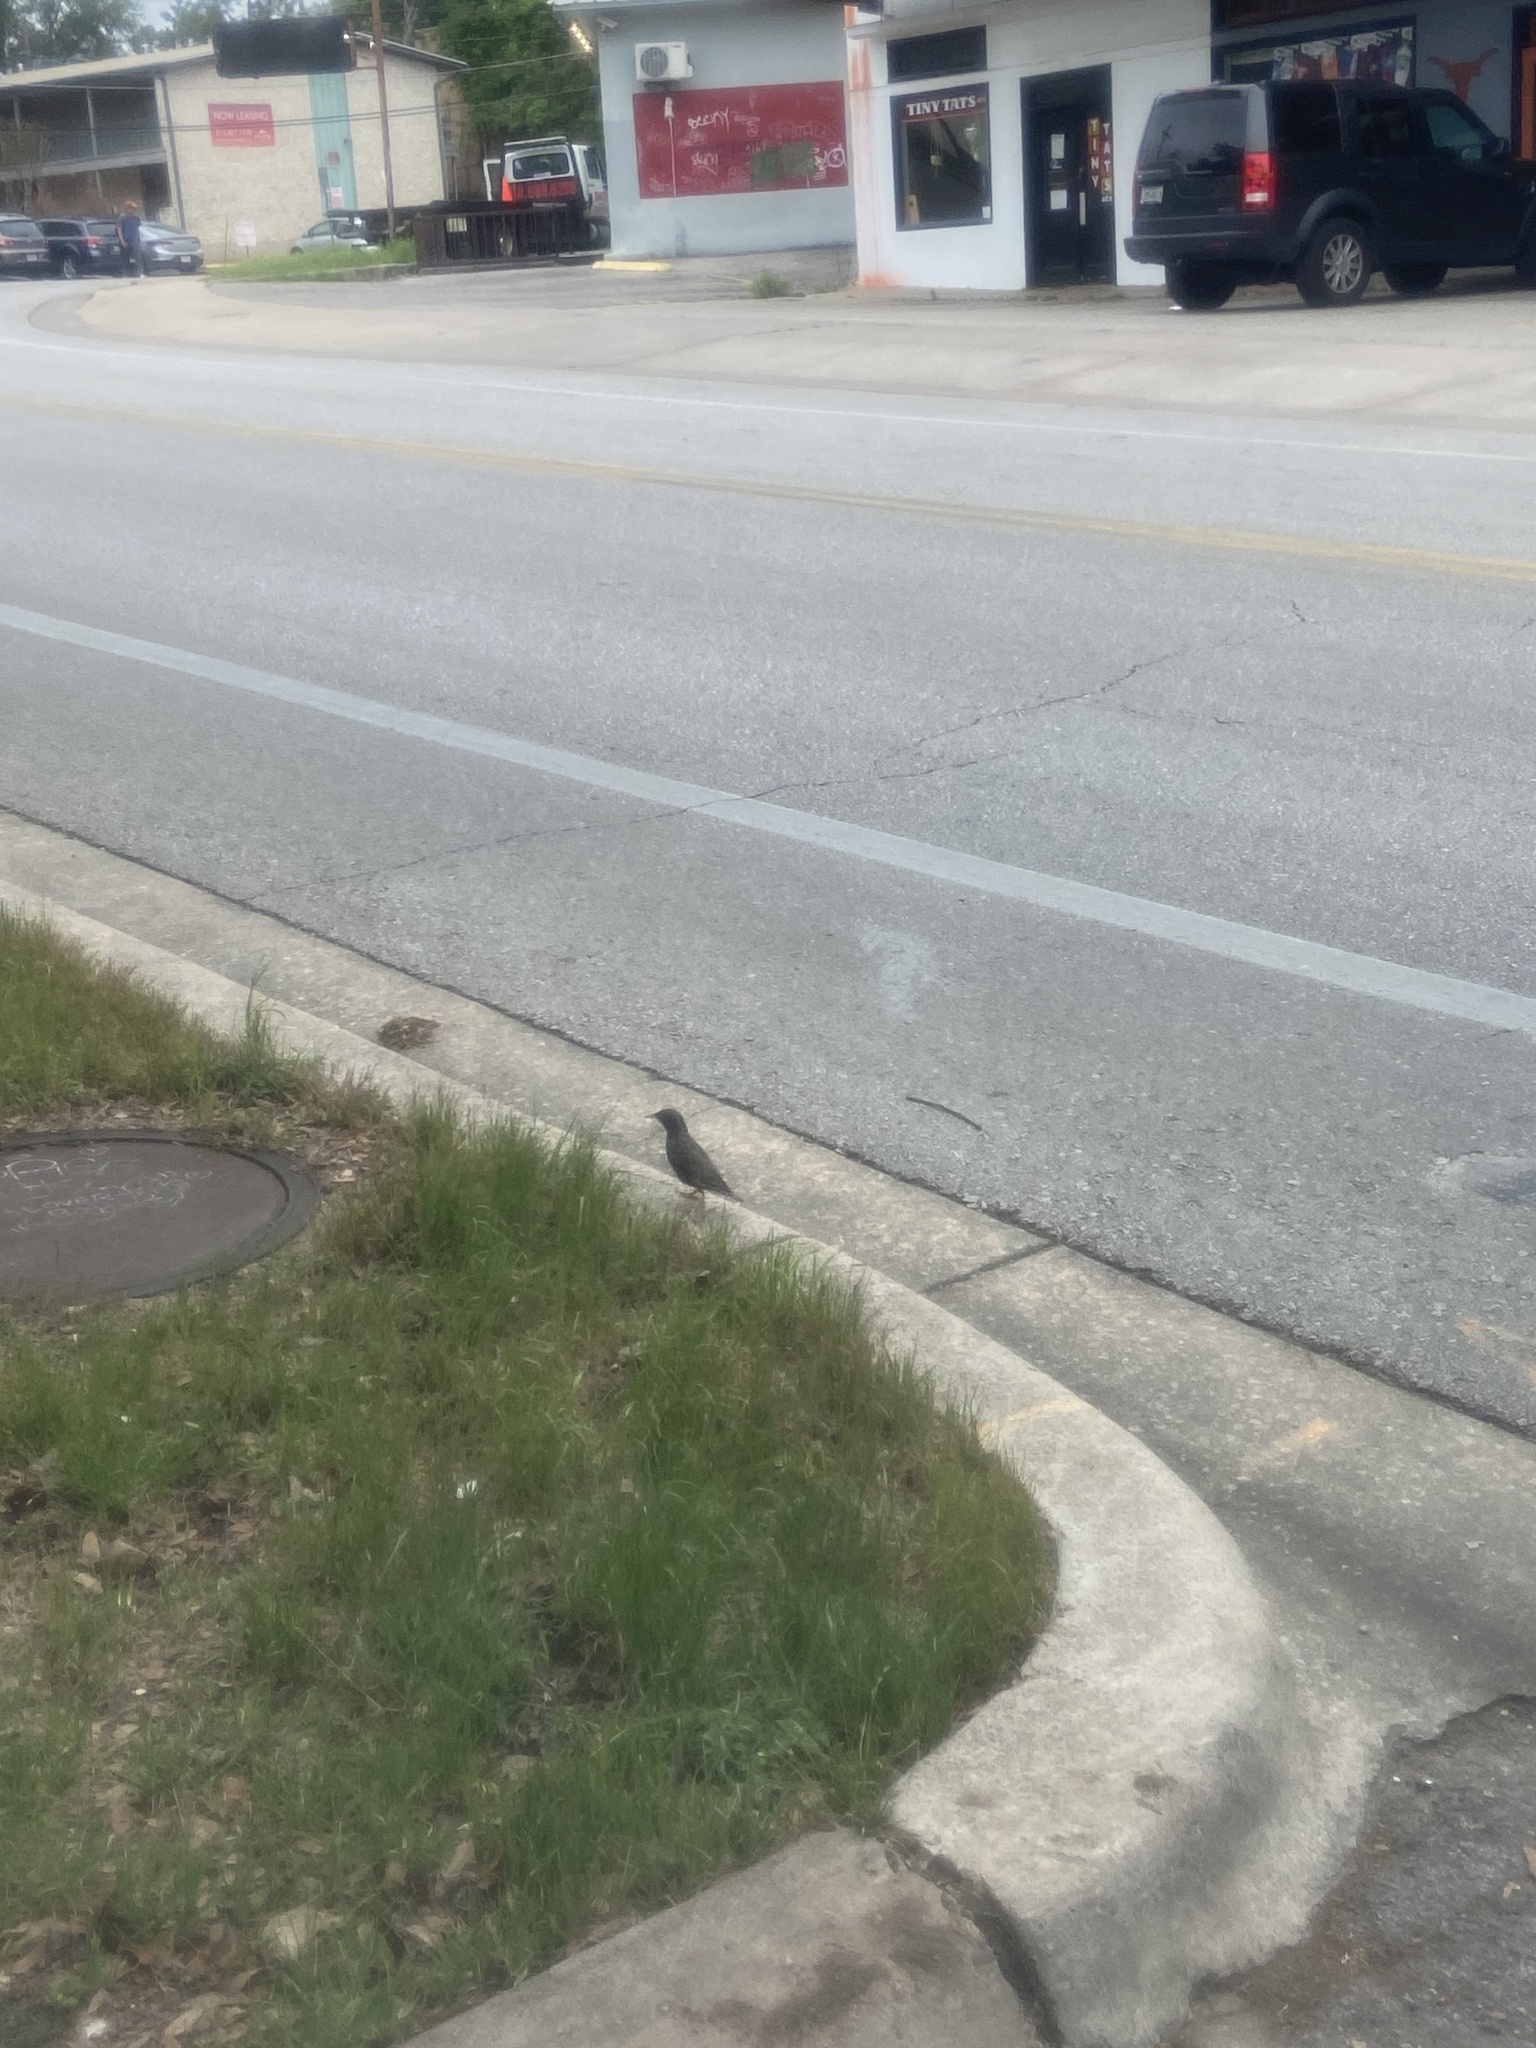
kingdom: Animalia
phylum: Chordata
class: Aves
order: Passeriformes
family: Sturnidae
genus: Sturnus
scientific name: Sturnus vulgaris
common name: Common starling
